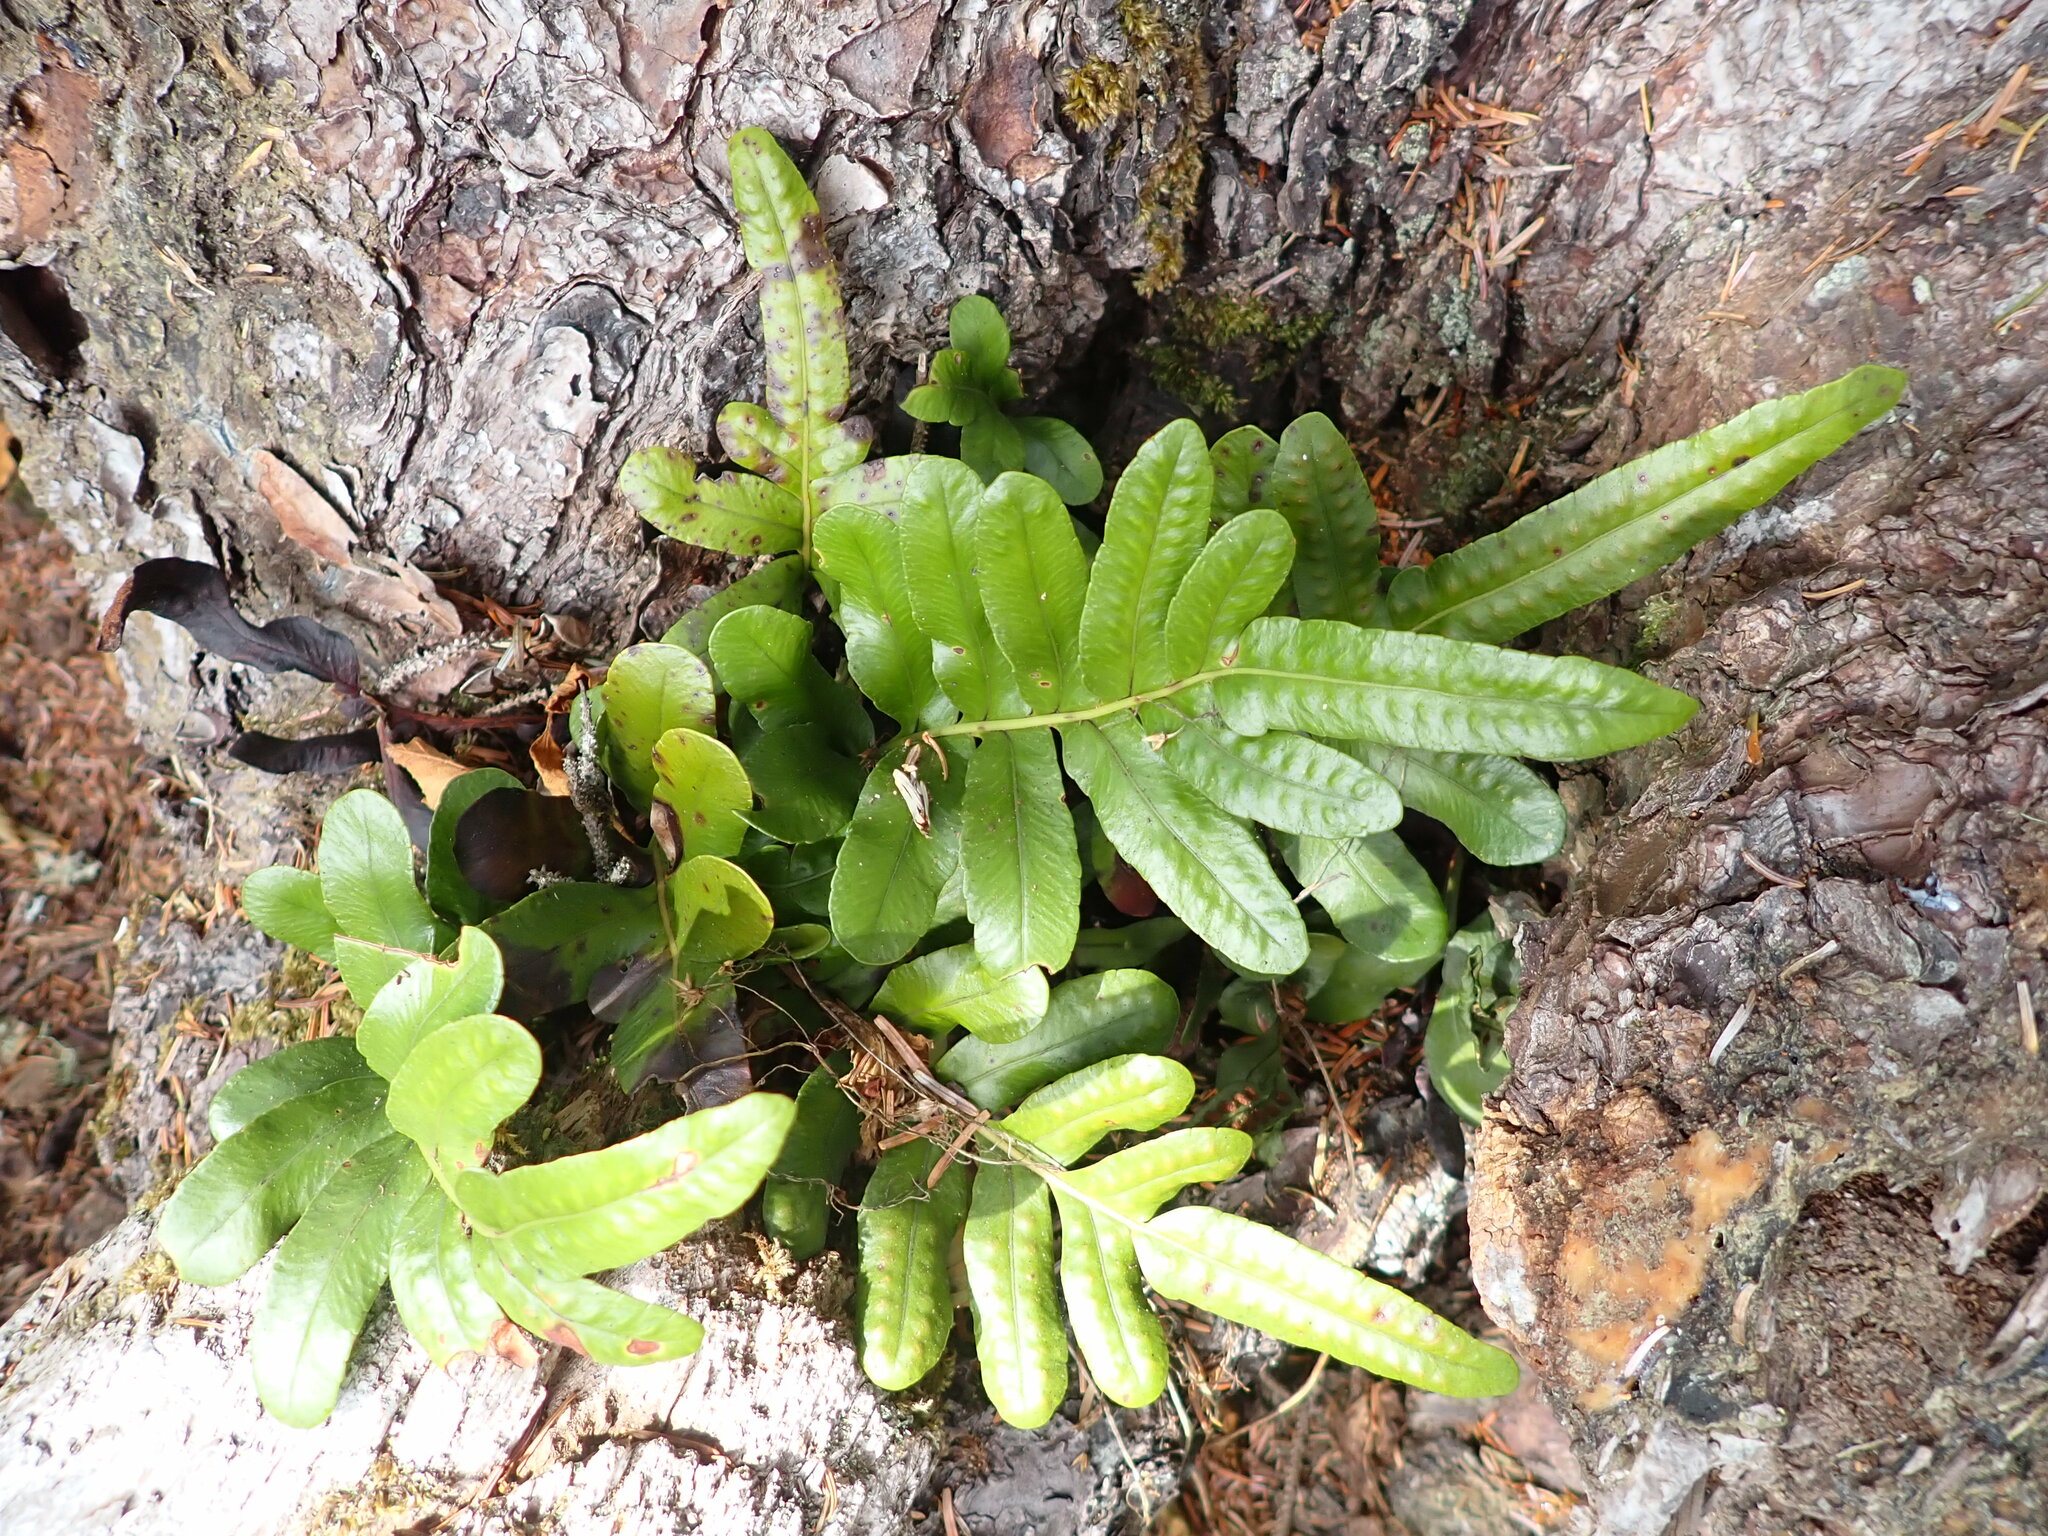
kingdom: Plantae
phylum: Tracheophyta
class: Polypodiopsida
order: Polypodiales
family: Polypodiaceae
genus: Polypodium
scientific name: Polypodium scouleri
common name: Scouler's polypody
